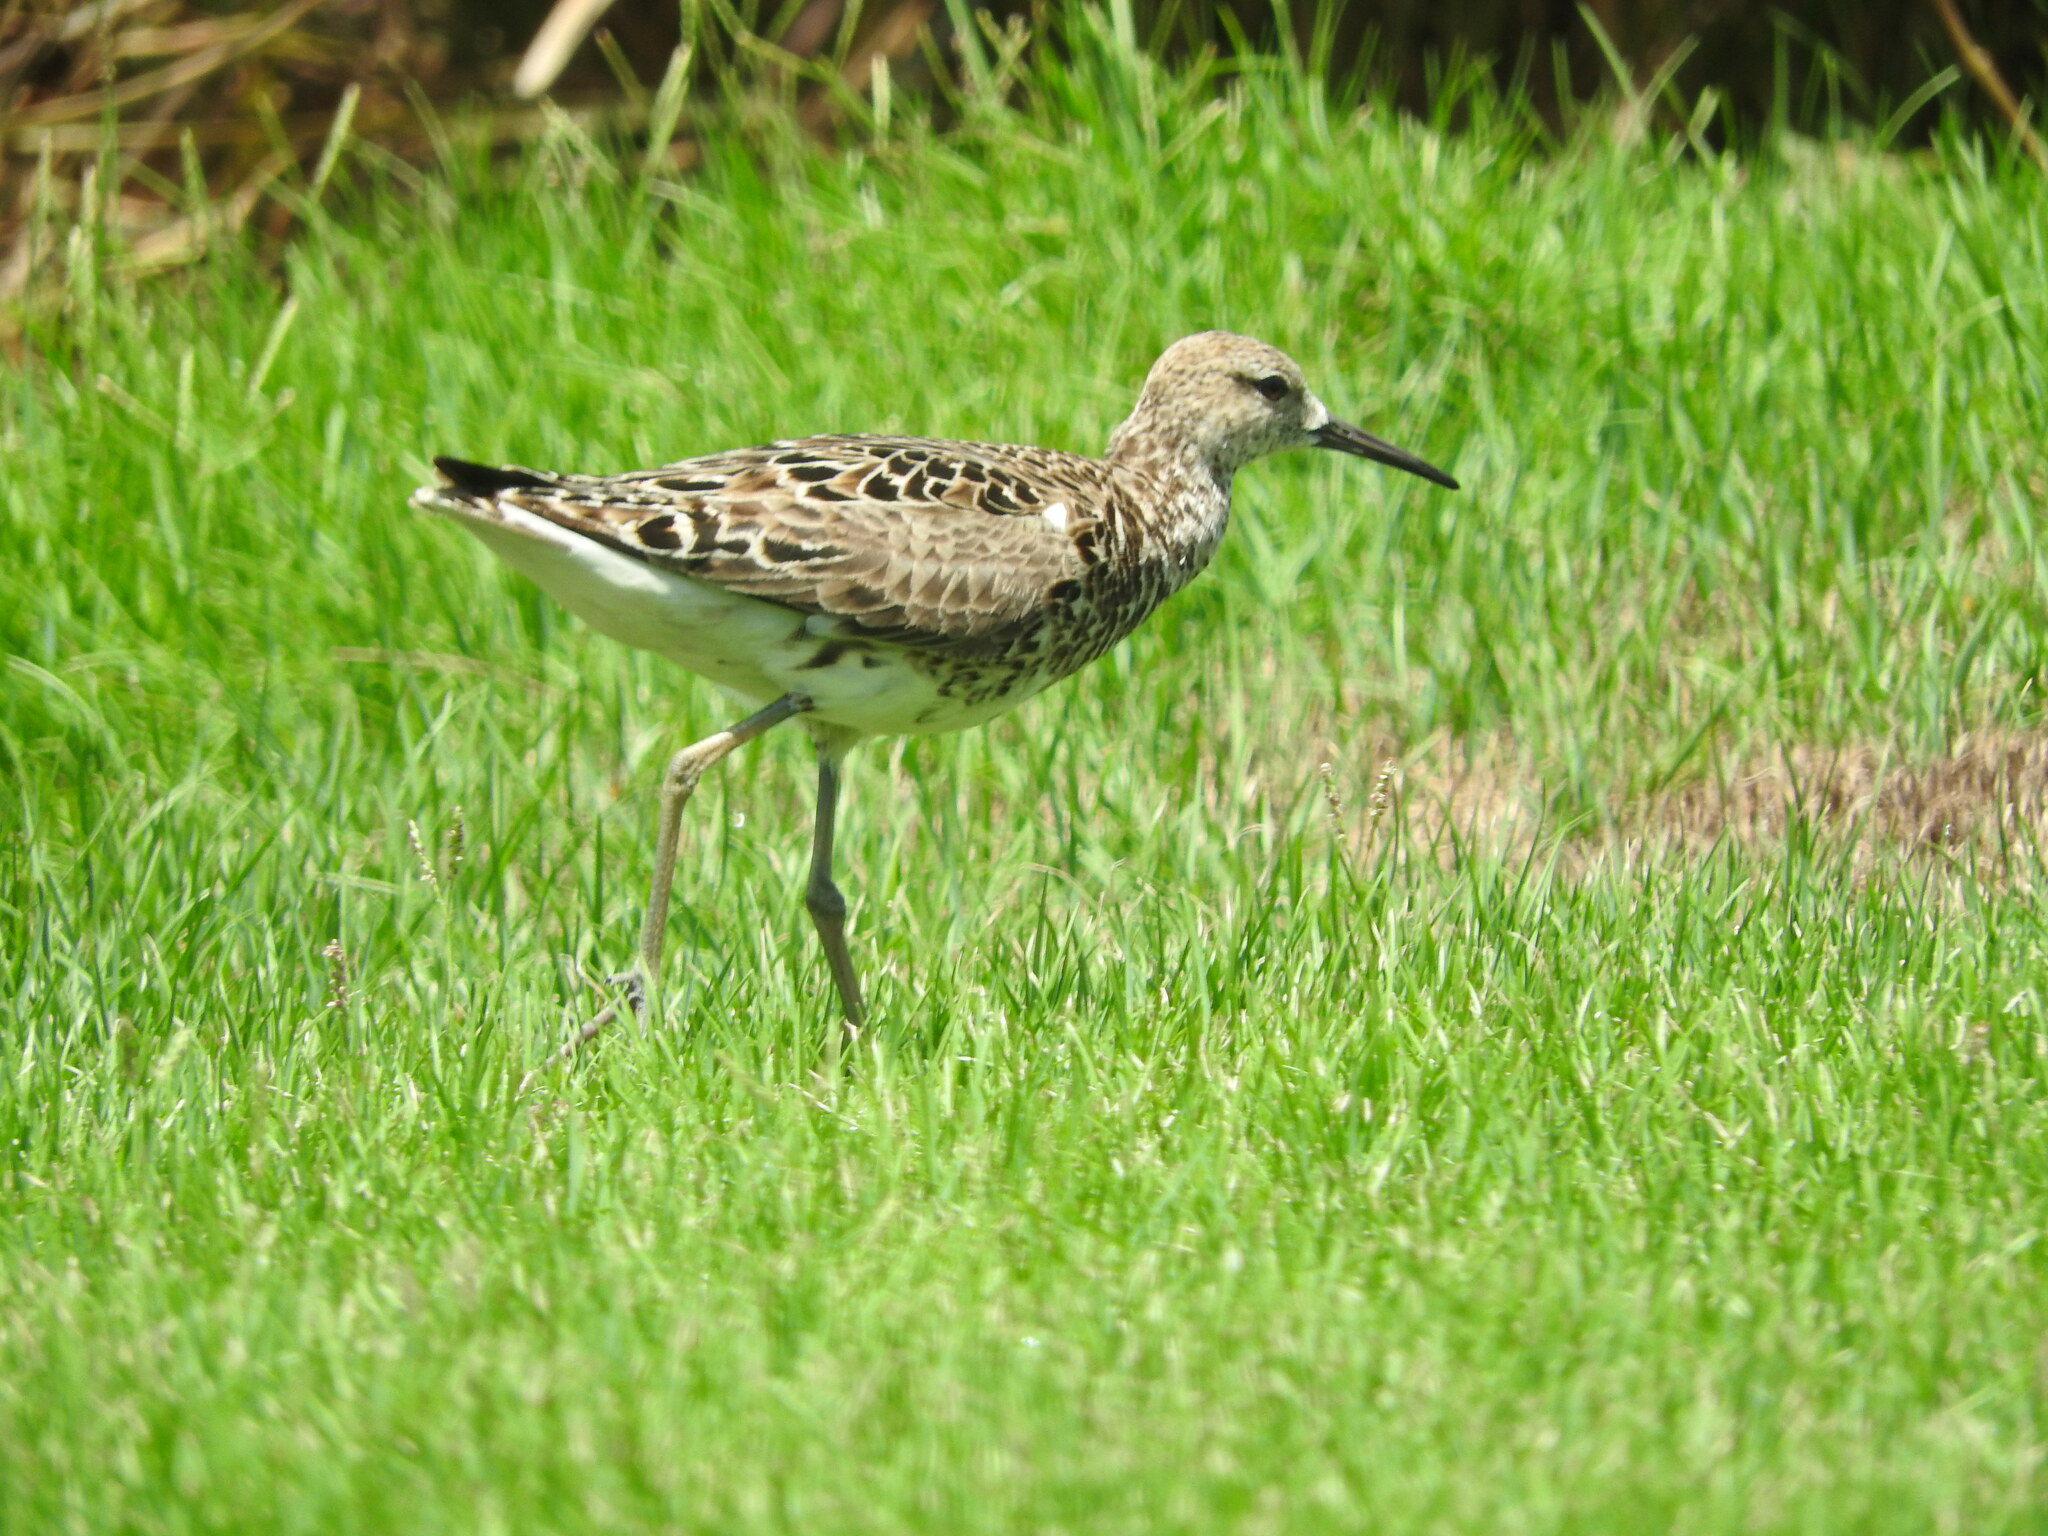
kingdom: Animalia
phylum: Chordata
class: Aves
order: Charadriiformes
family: Scolopacidae
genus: Calidris
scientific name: Calidris pugnax
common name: Ruff
